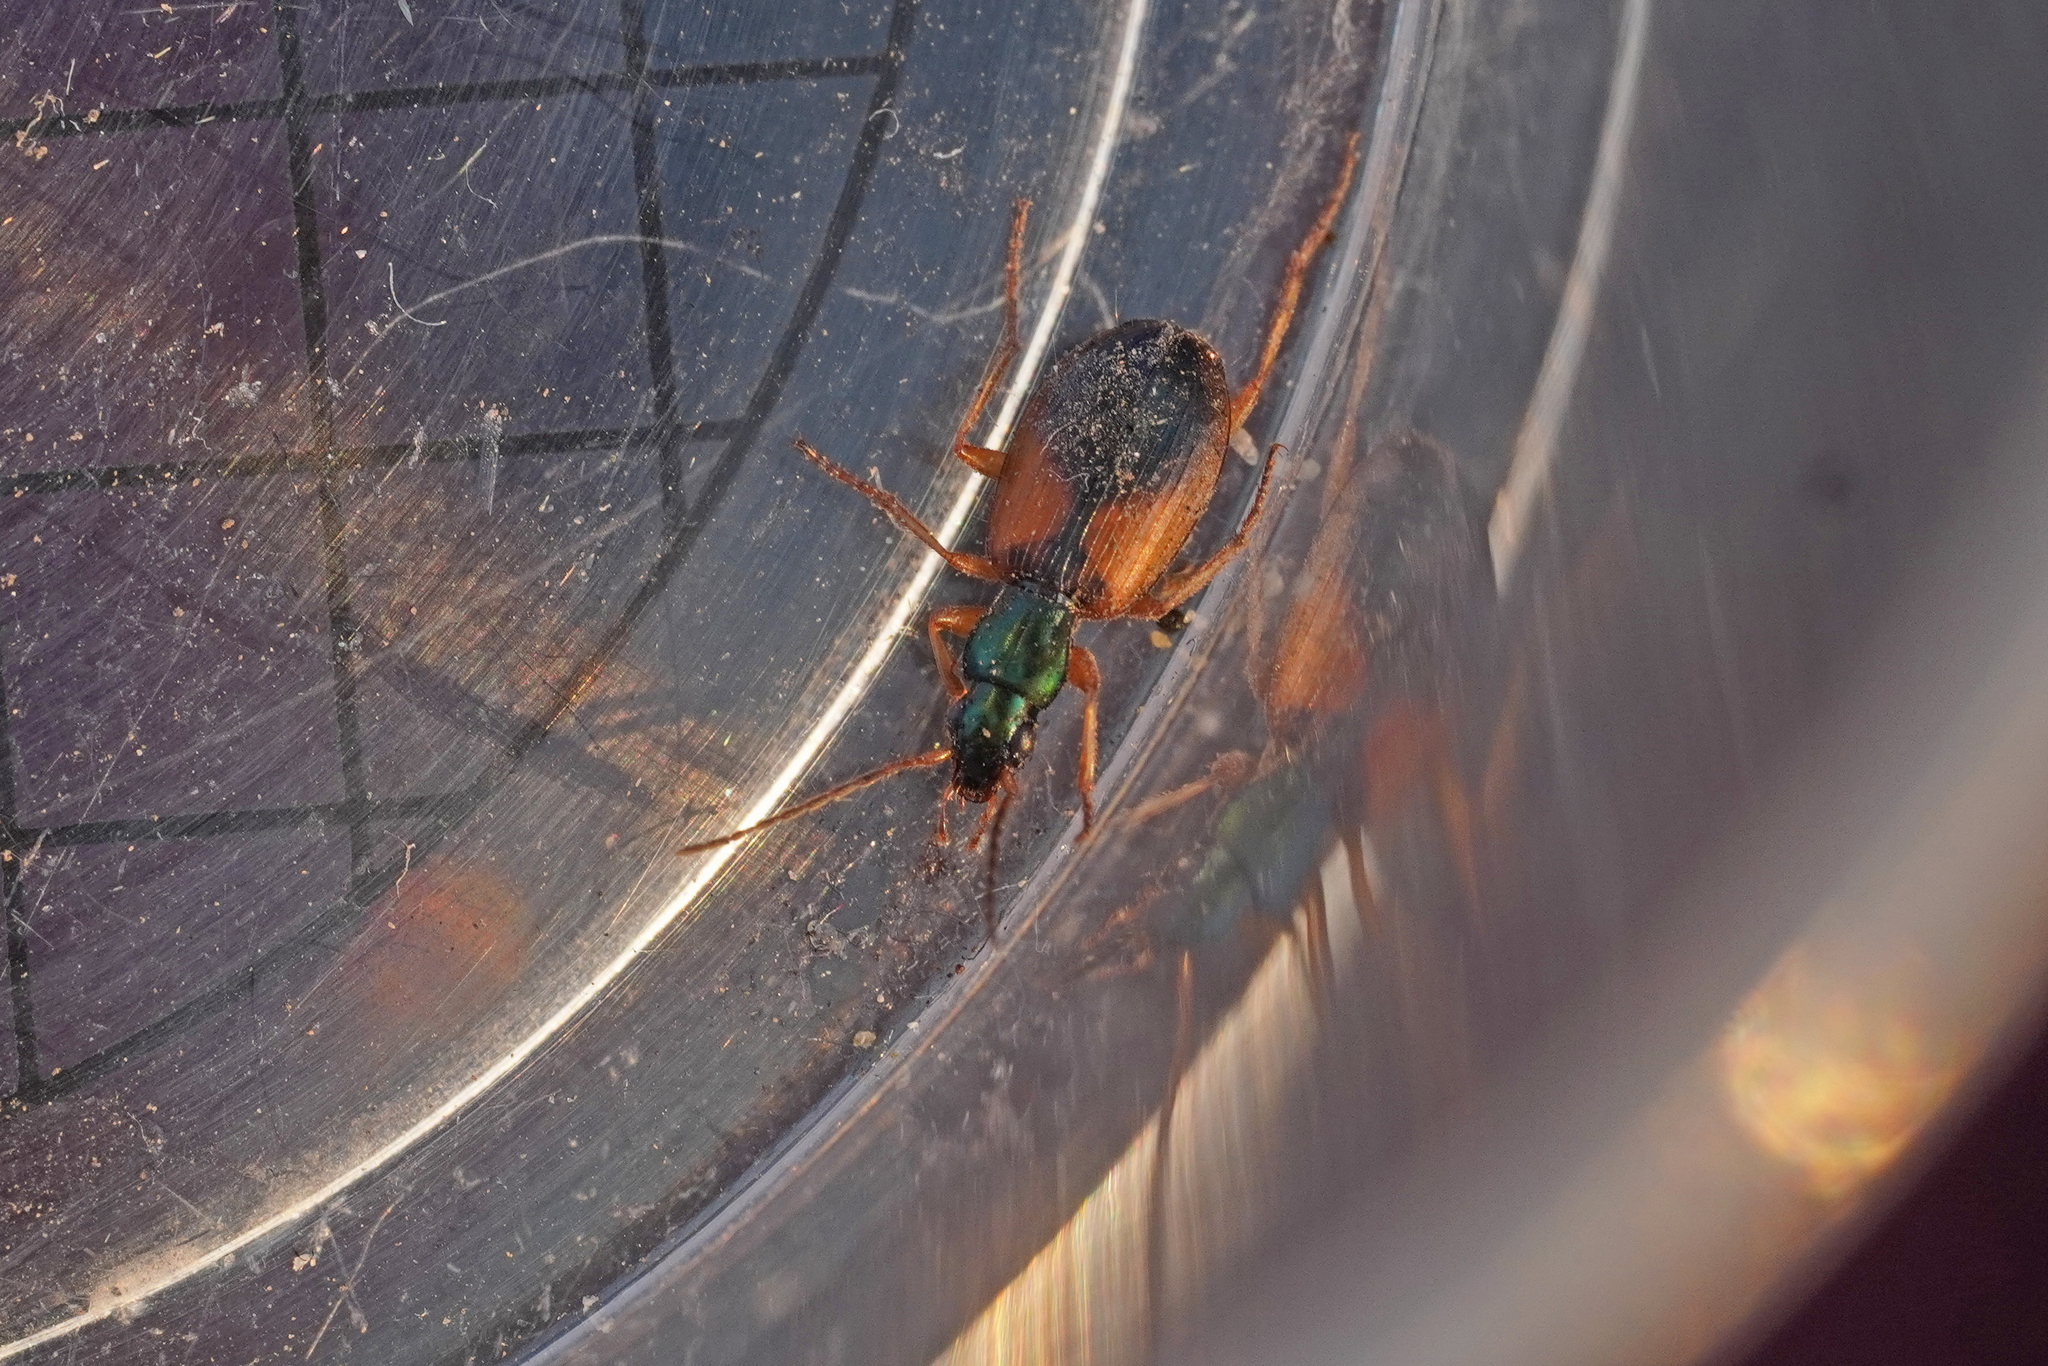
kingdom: Animalia
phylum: Arthropoda
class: Insecta
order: Coleoptera
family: Carabidae
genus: Anchomenus
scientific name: Anchomenus dorsalis
